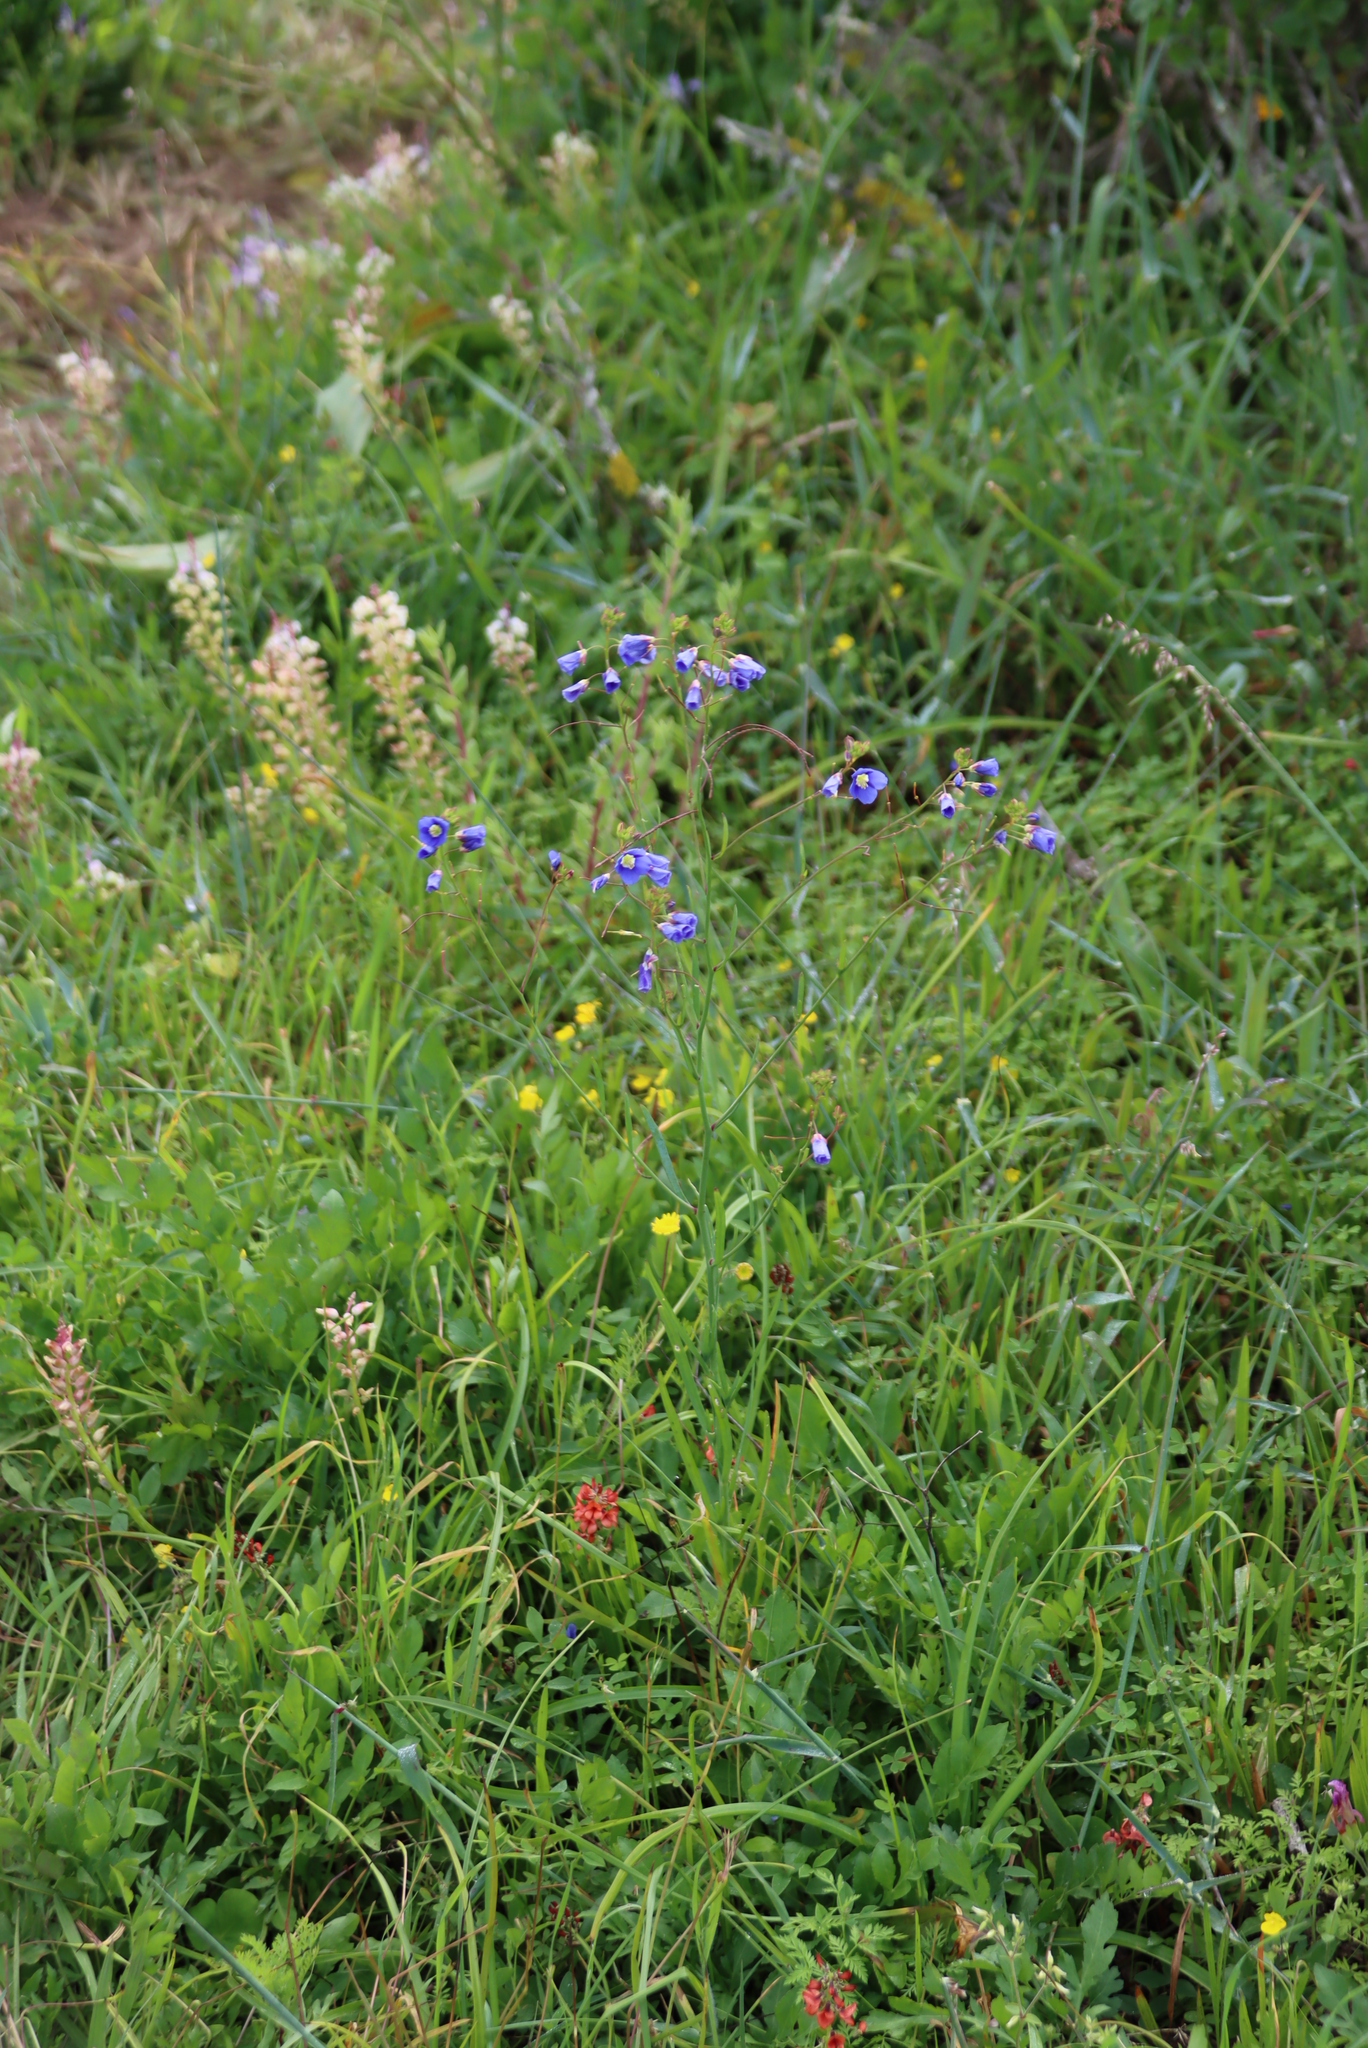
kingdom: Plantae
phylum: Tracheophyta
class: Magnoliopsida
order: Brassicales
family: Brassicaceae
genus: Heliophila
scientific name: Heliophila coronopifolia
